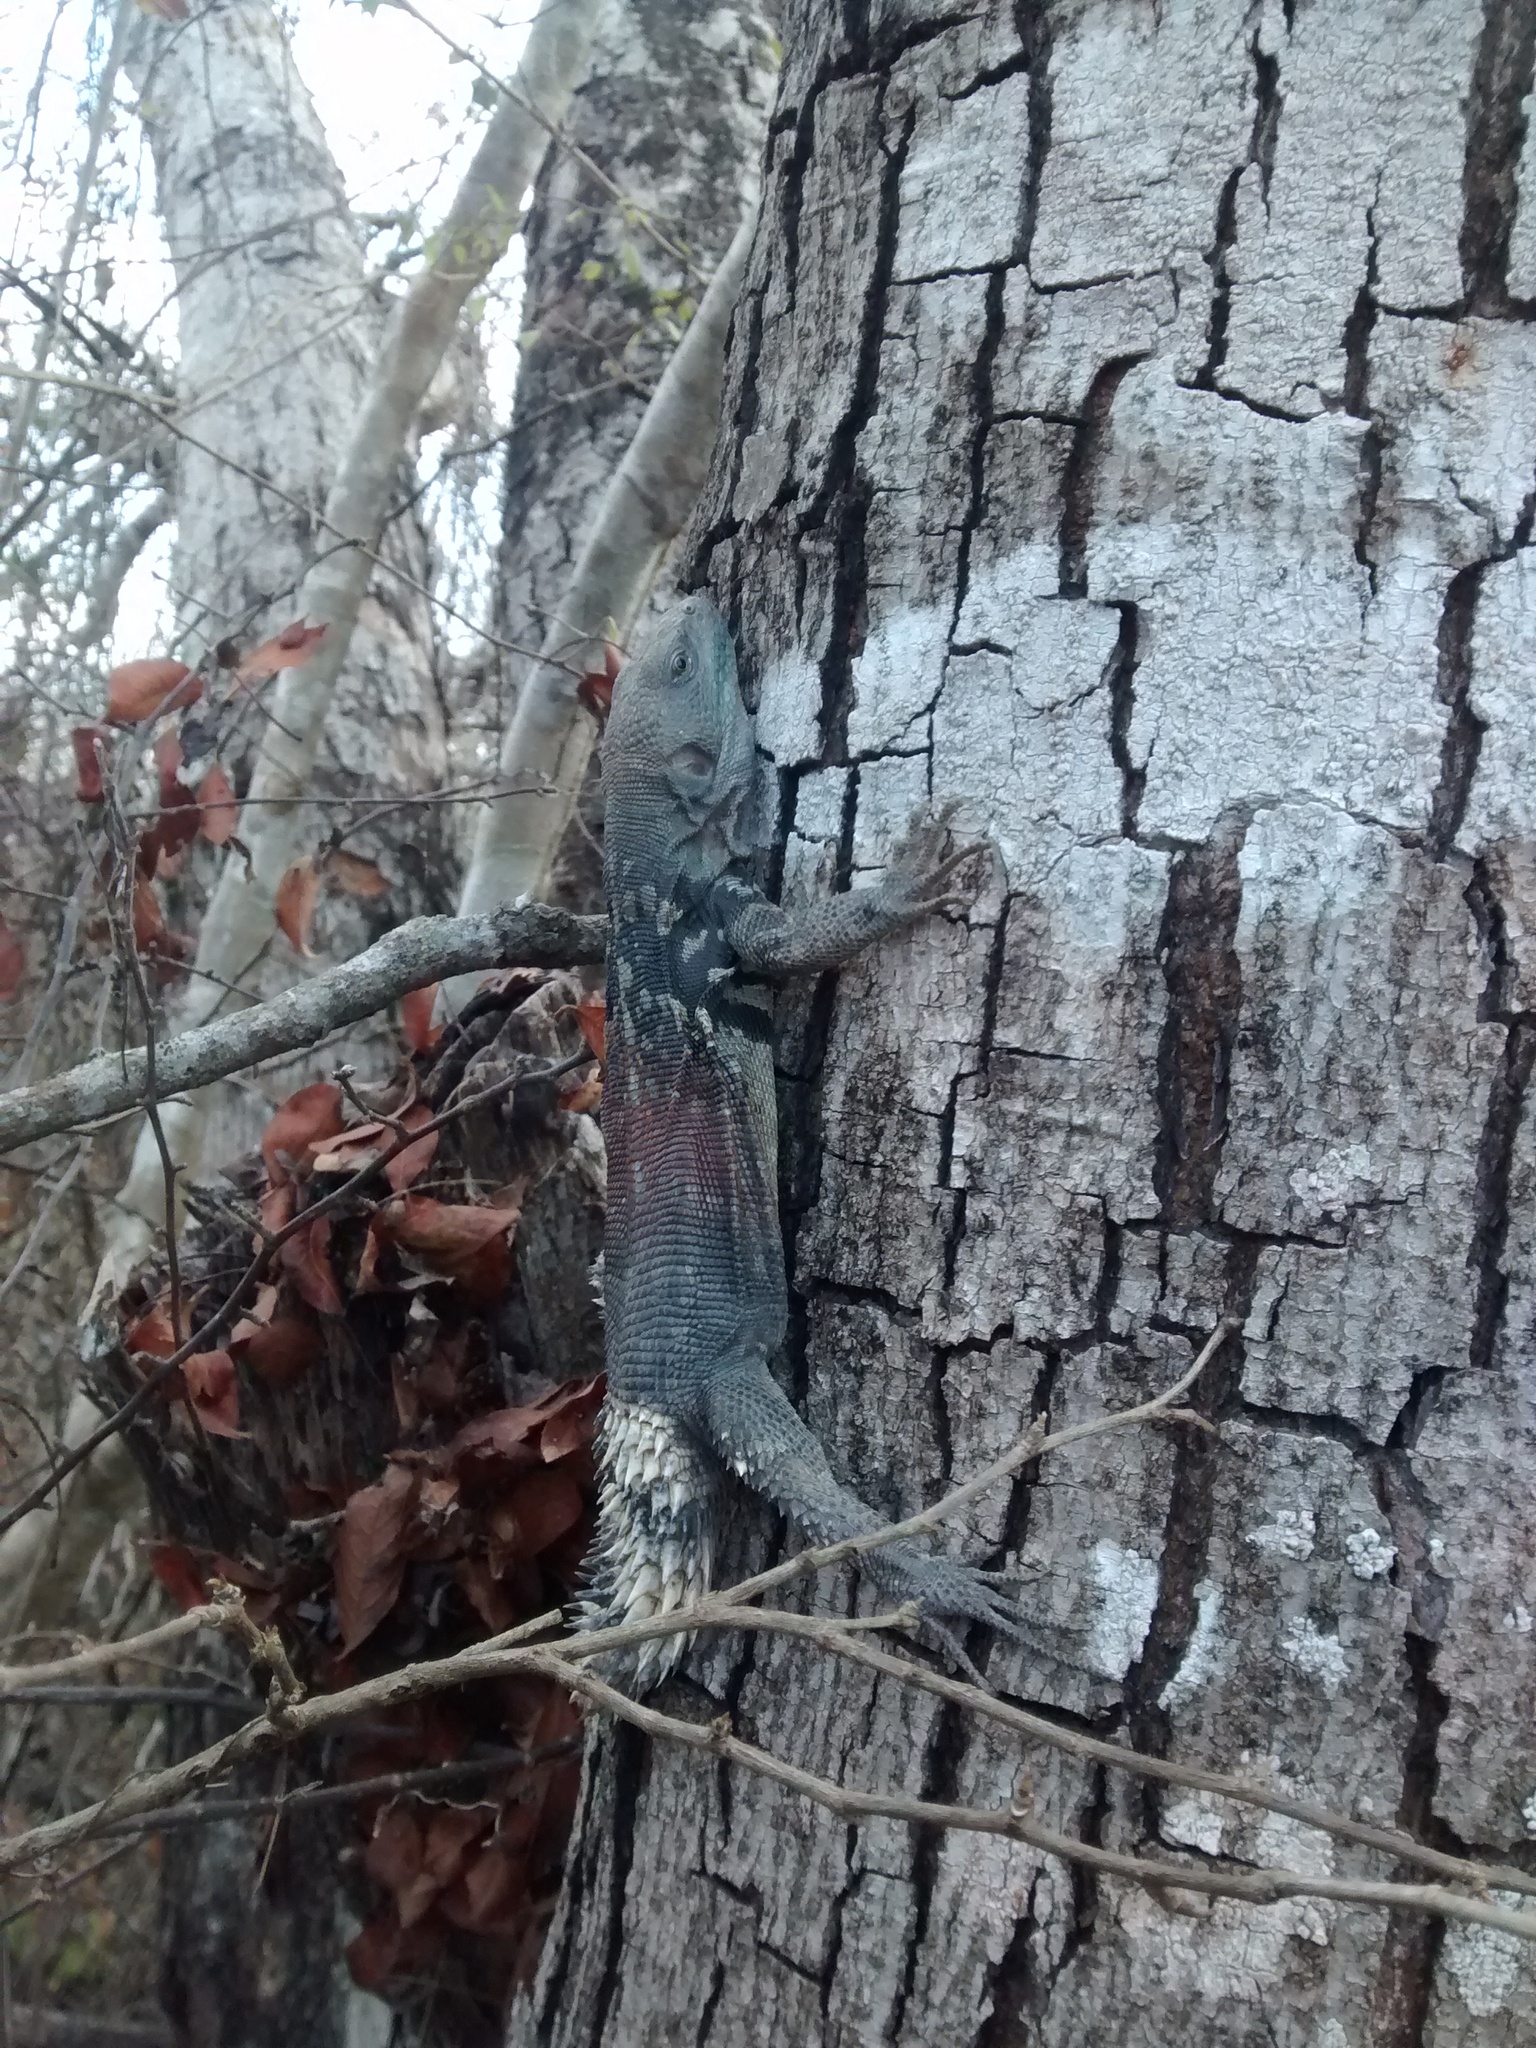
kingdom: Animalia
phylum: Chordata
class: Squamata
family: Iguanidae
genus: Cachryx
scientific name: Cachryx defensor
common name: Yucatán spinytail iguana
